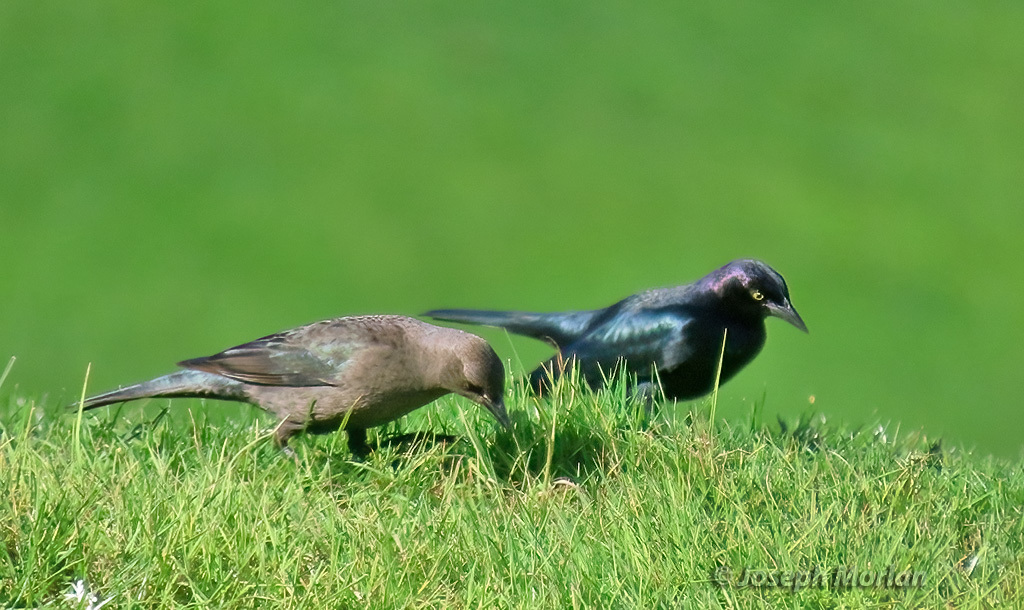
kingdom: Animalia
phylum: Chordata
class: Aves
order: Passeriformes
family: Icteridae
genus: Euphagus
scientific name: Euphagus cyanocephalus
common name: Brewer's blackbird
